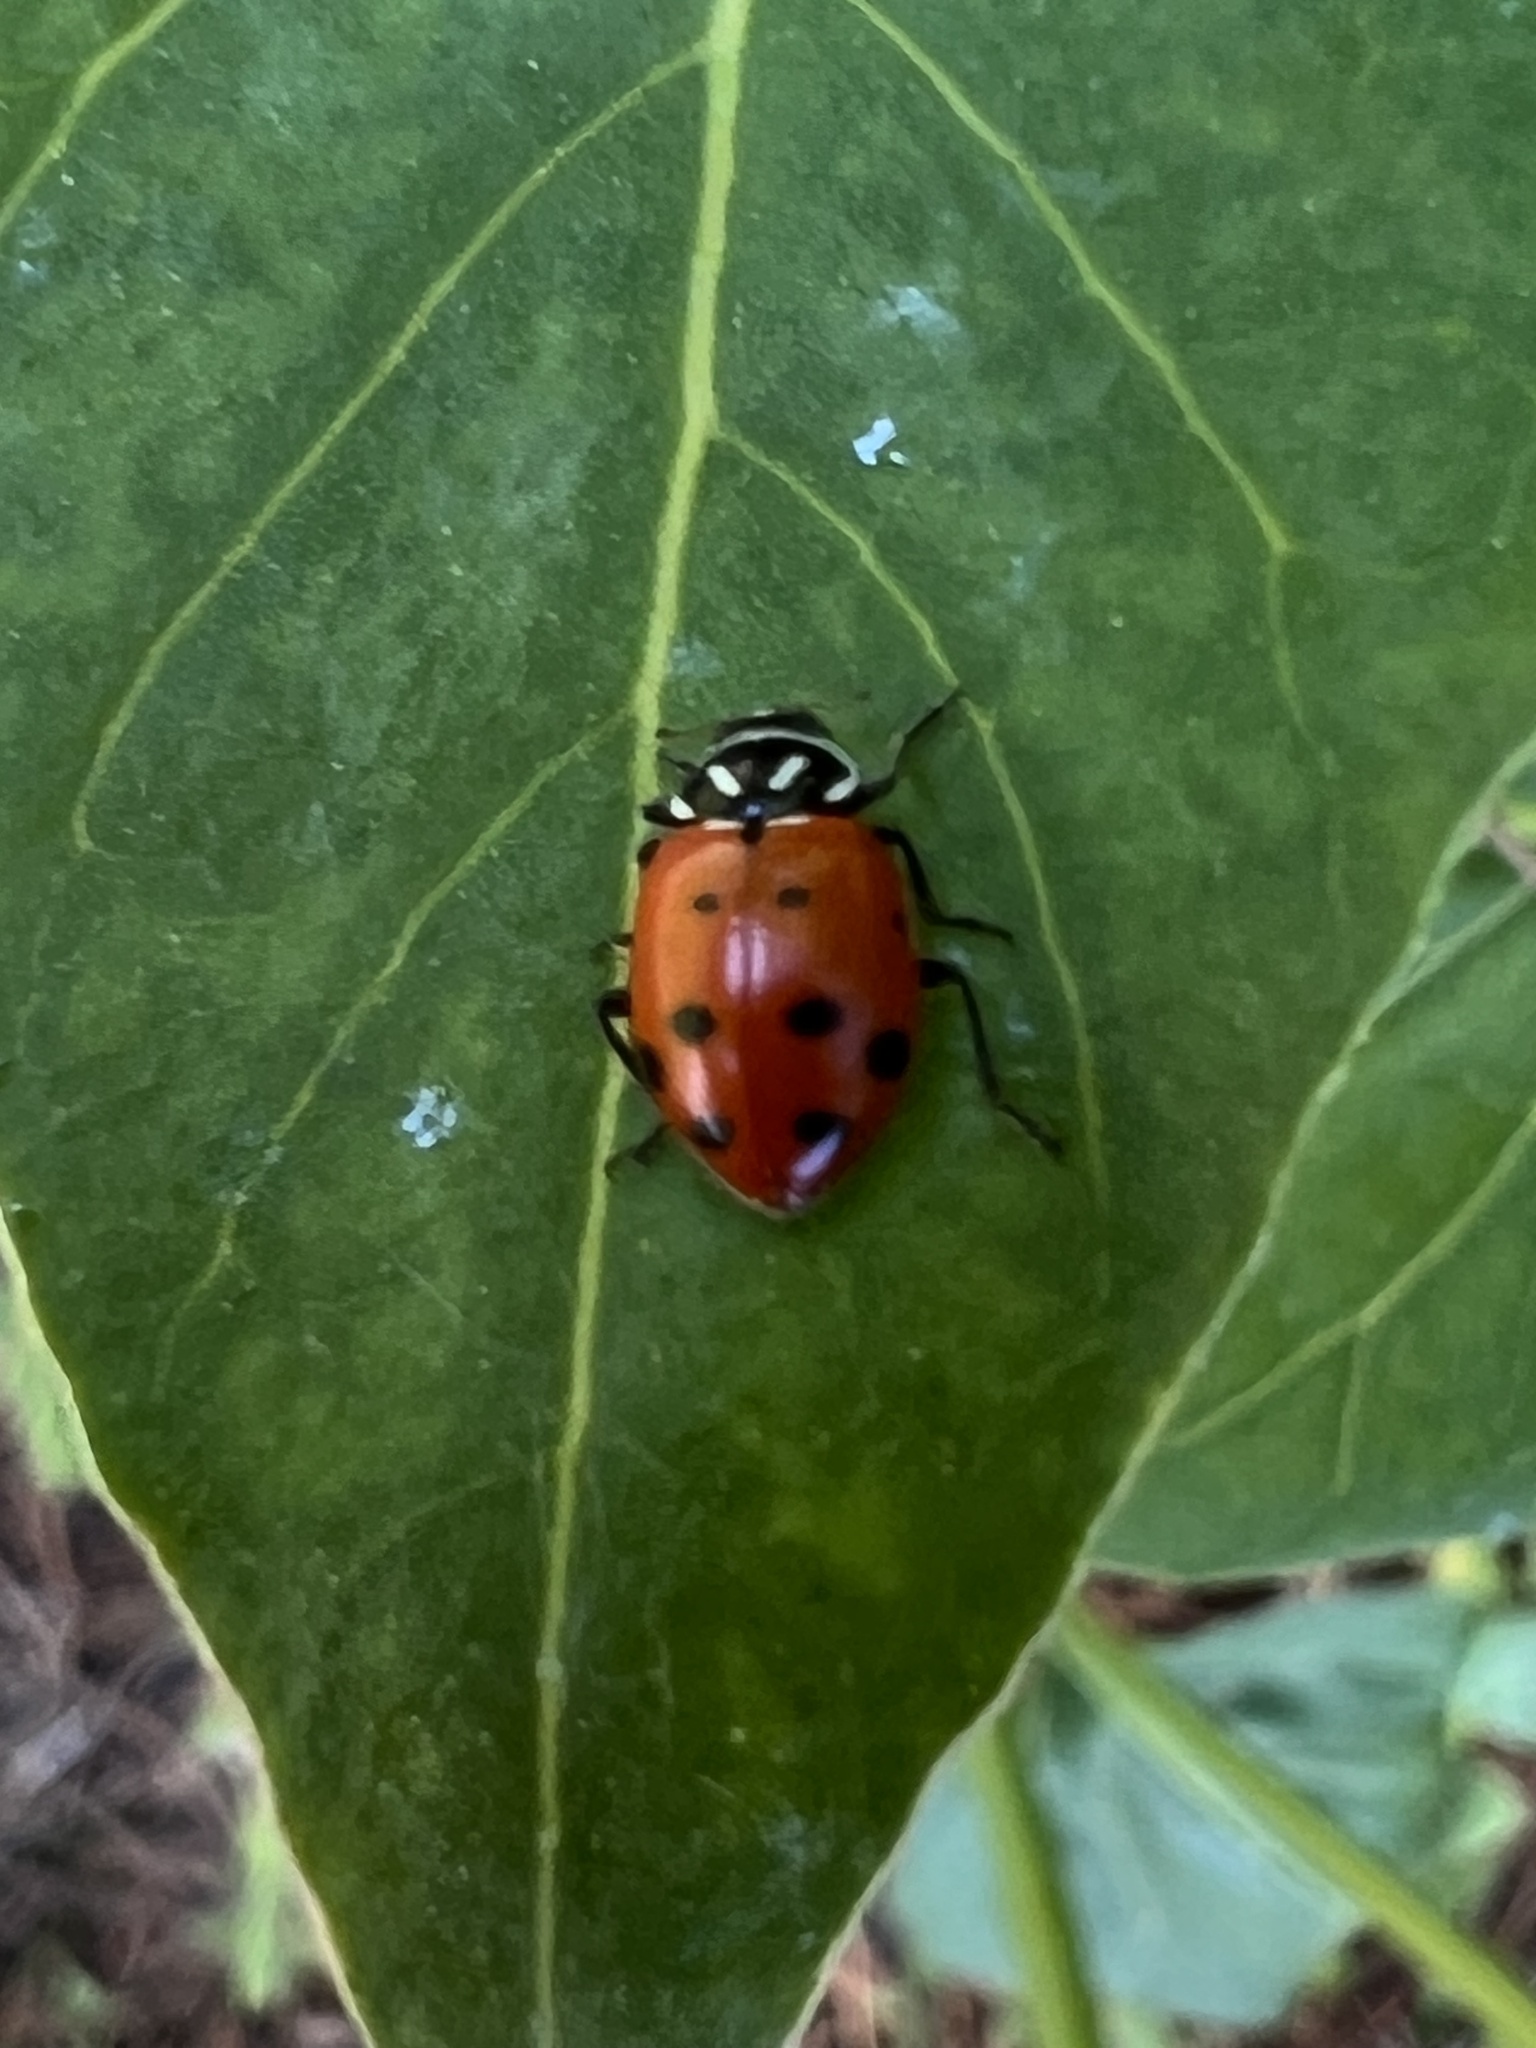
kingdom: Animalia
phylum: Arthropoda
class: Insecta
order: Coleoptera
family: Coccinellidae
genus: Hippodamia
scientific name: Hippodamia convergens
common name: Convergent lady beetle
